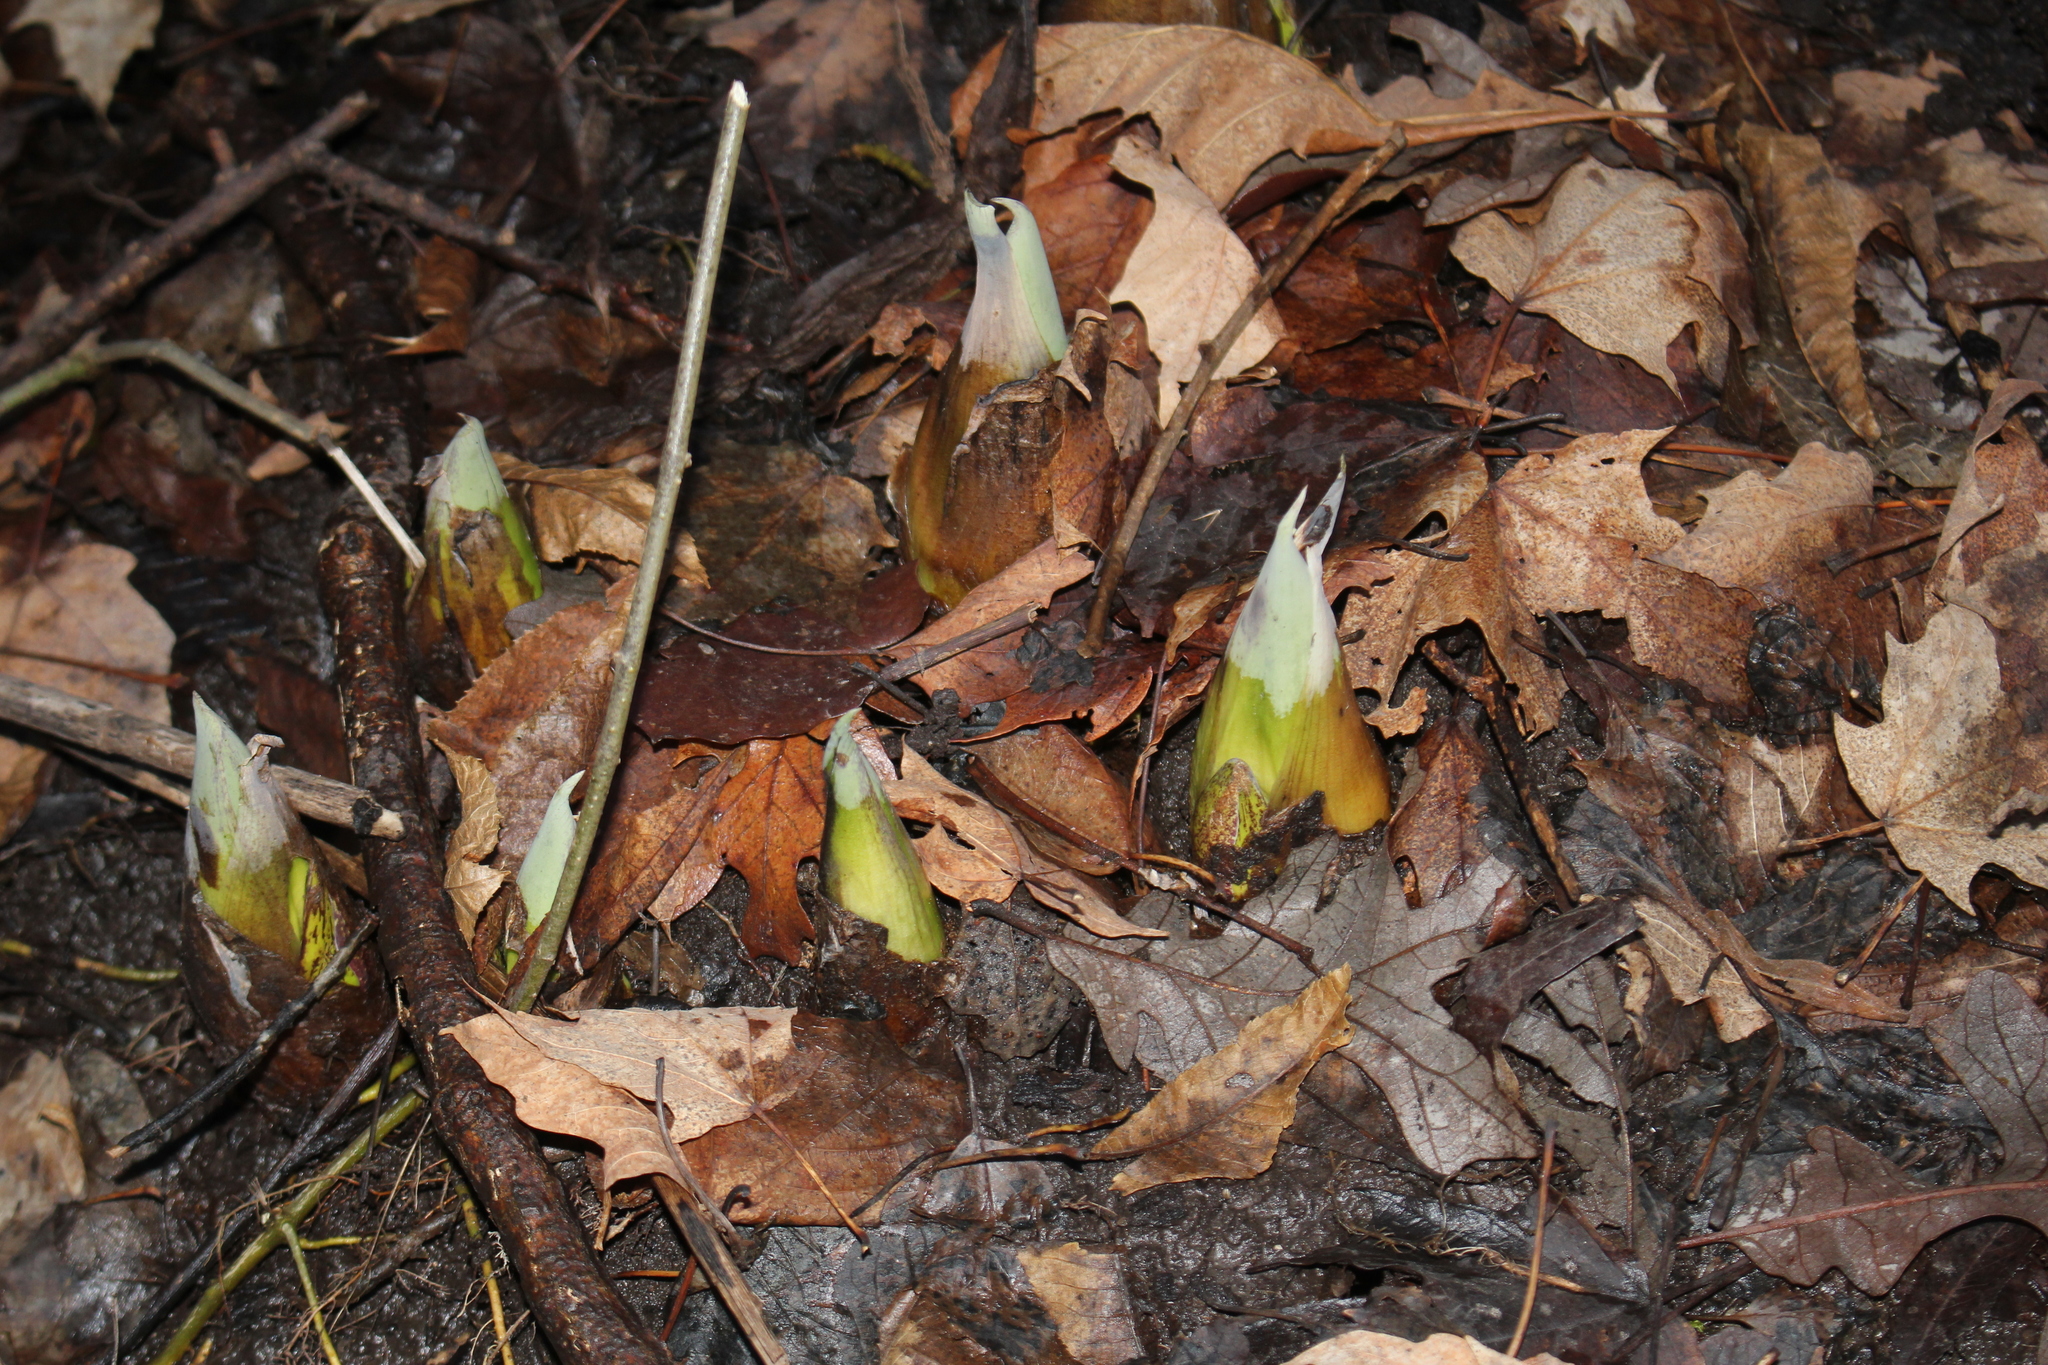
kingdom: Plantae
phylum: Tracheophyta
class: Liliopsida
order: Alismatales
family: Araceae
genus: Symplocarpus
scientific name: Symplocarpus foetidus
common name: Eastern skunk cabbage
